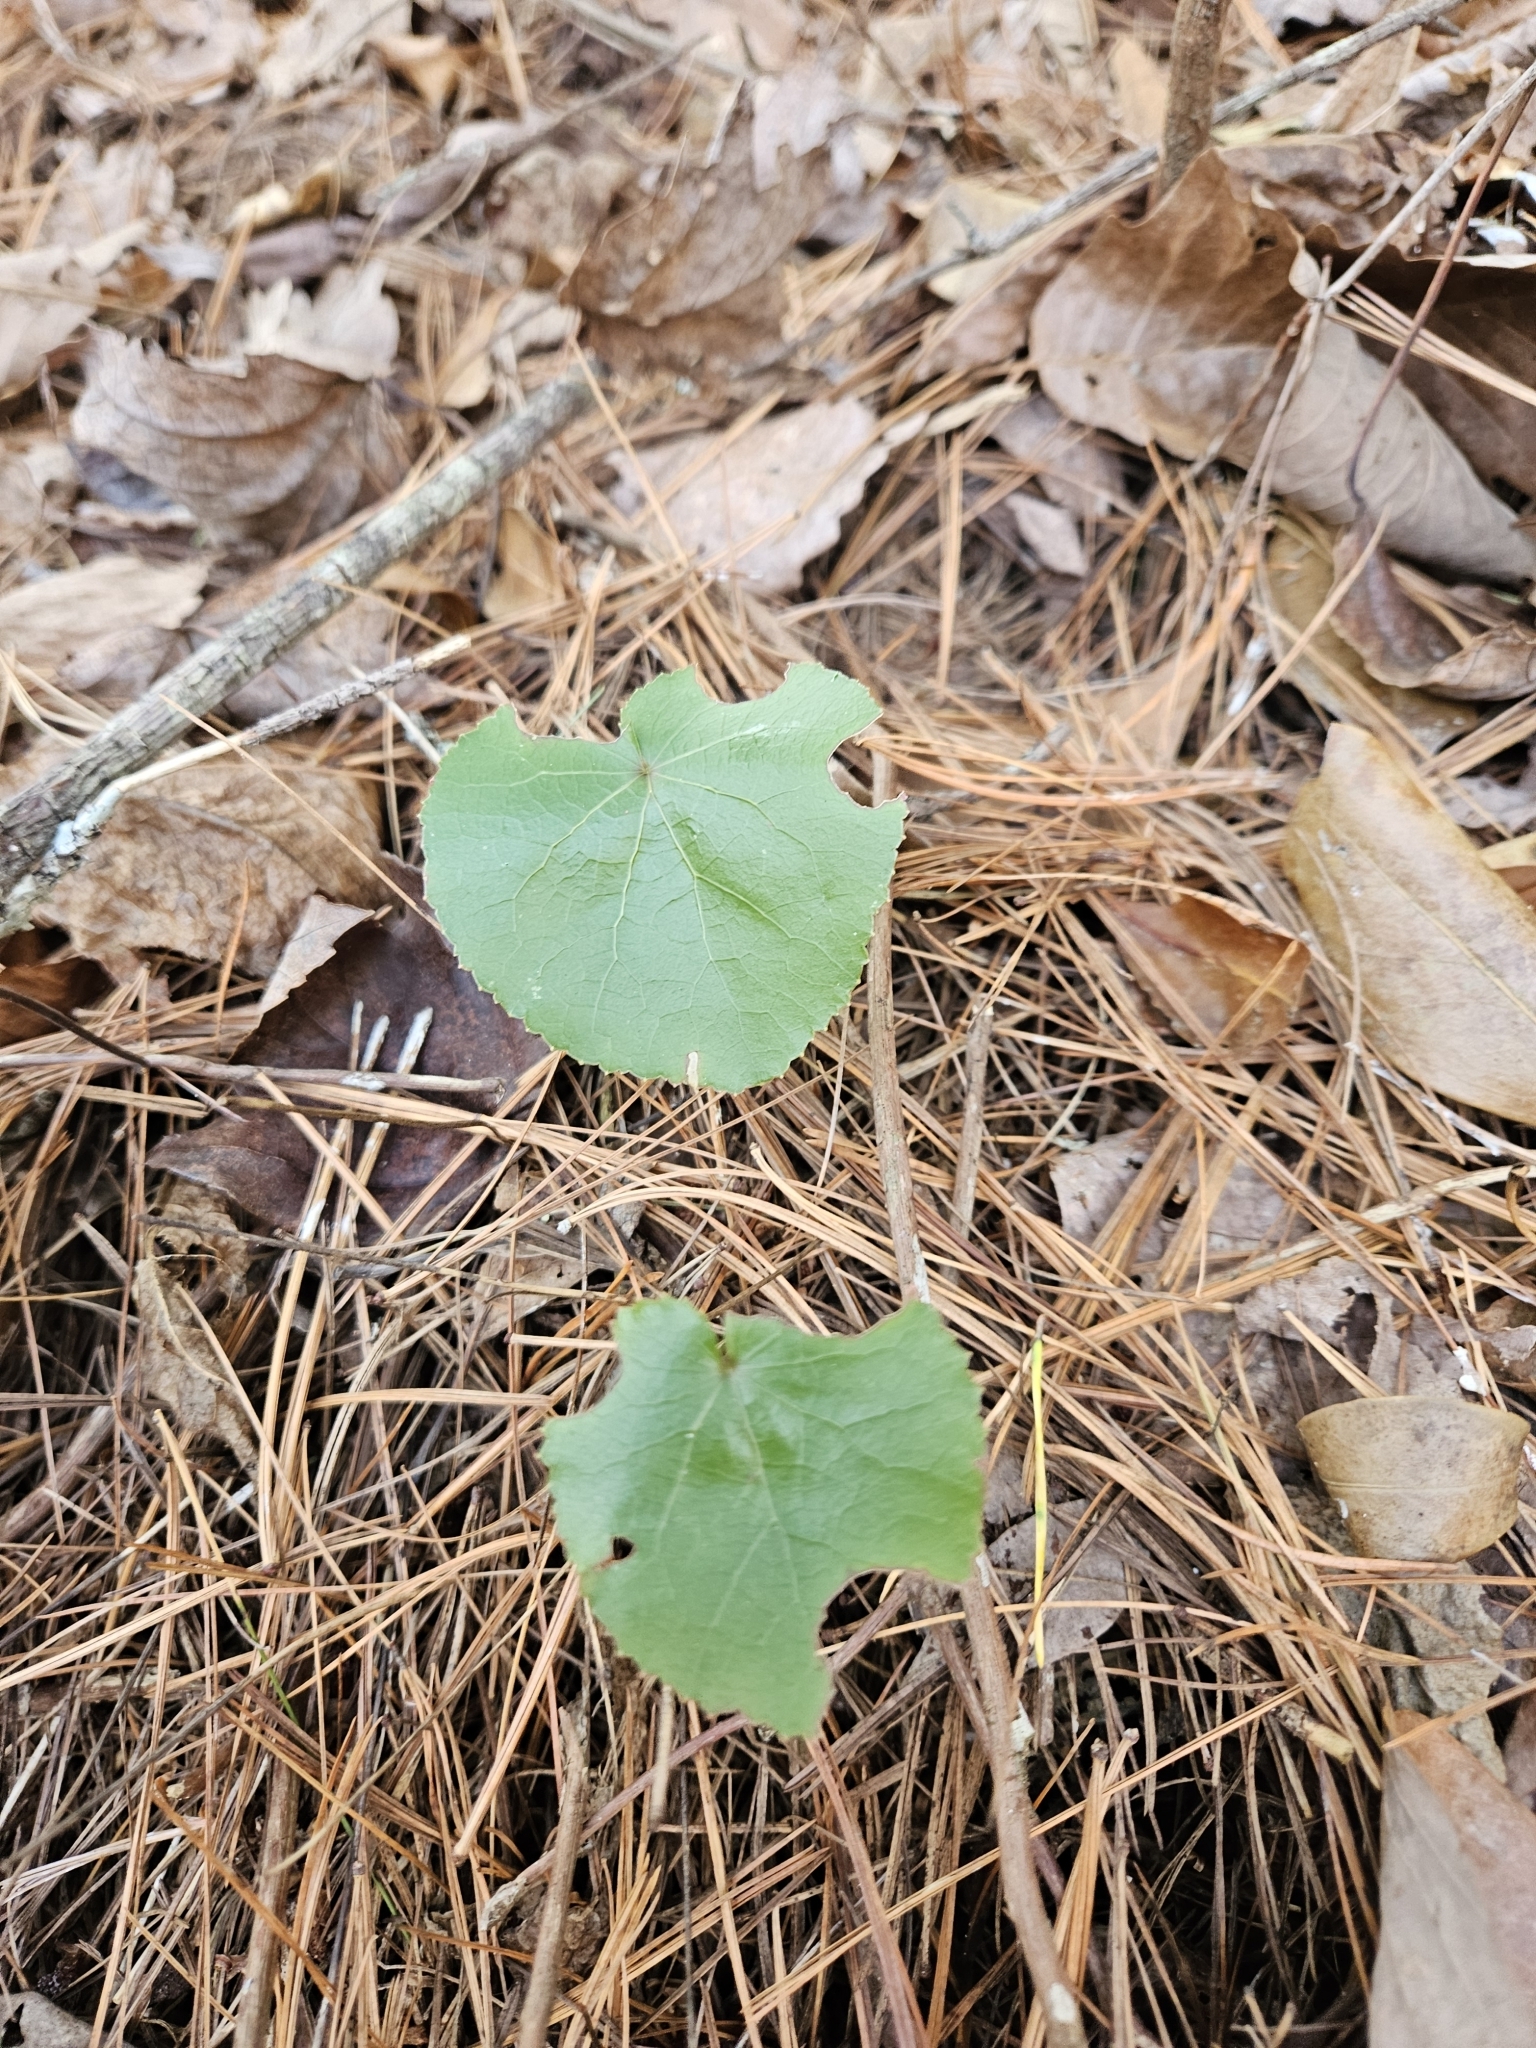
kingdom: Plantae
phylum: Tracheophyta
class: Magnoliopsida
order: Ericales
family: Diapensiaceae
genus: Galax
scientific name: Galax urceolata
